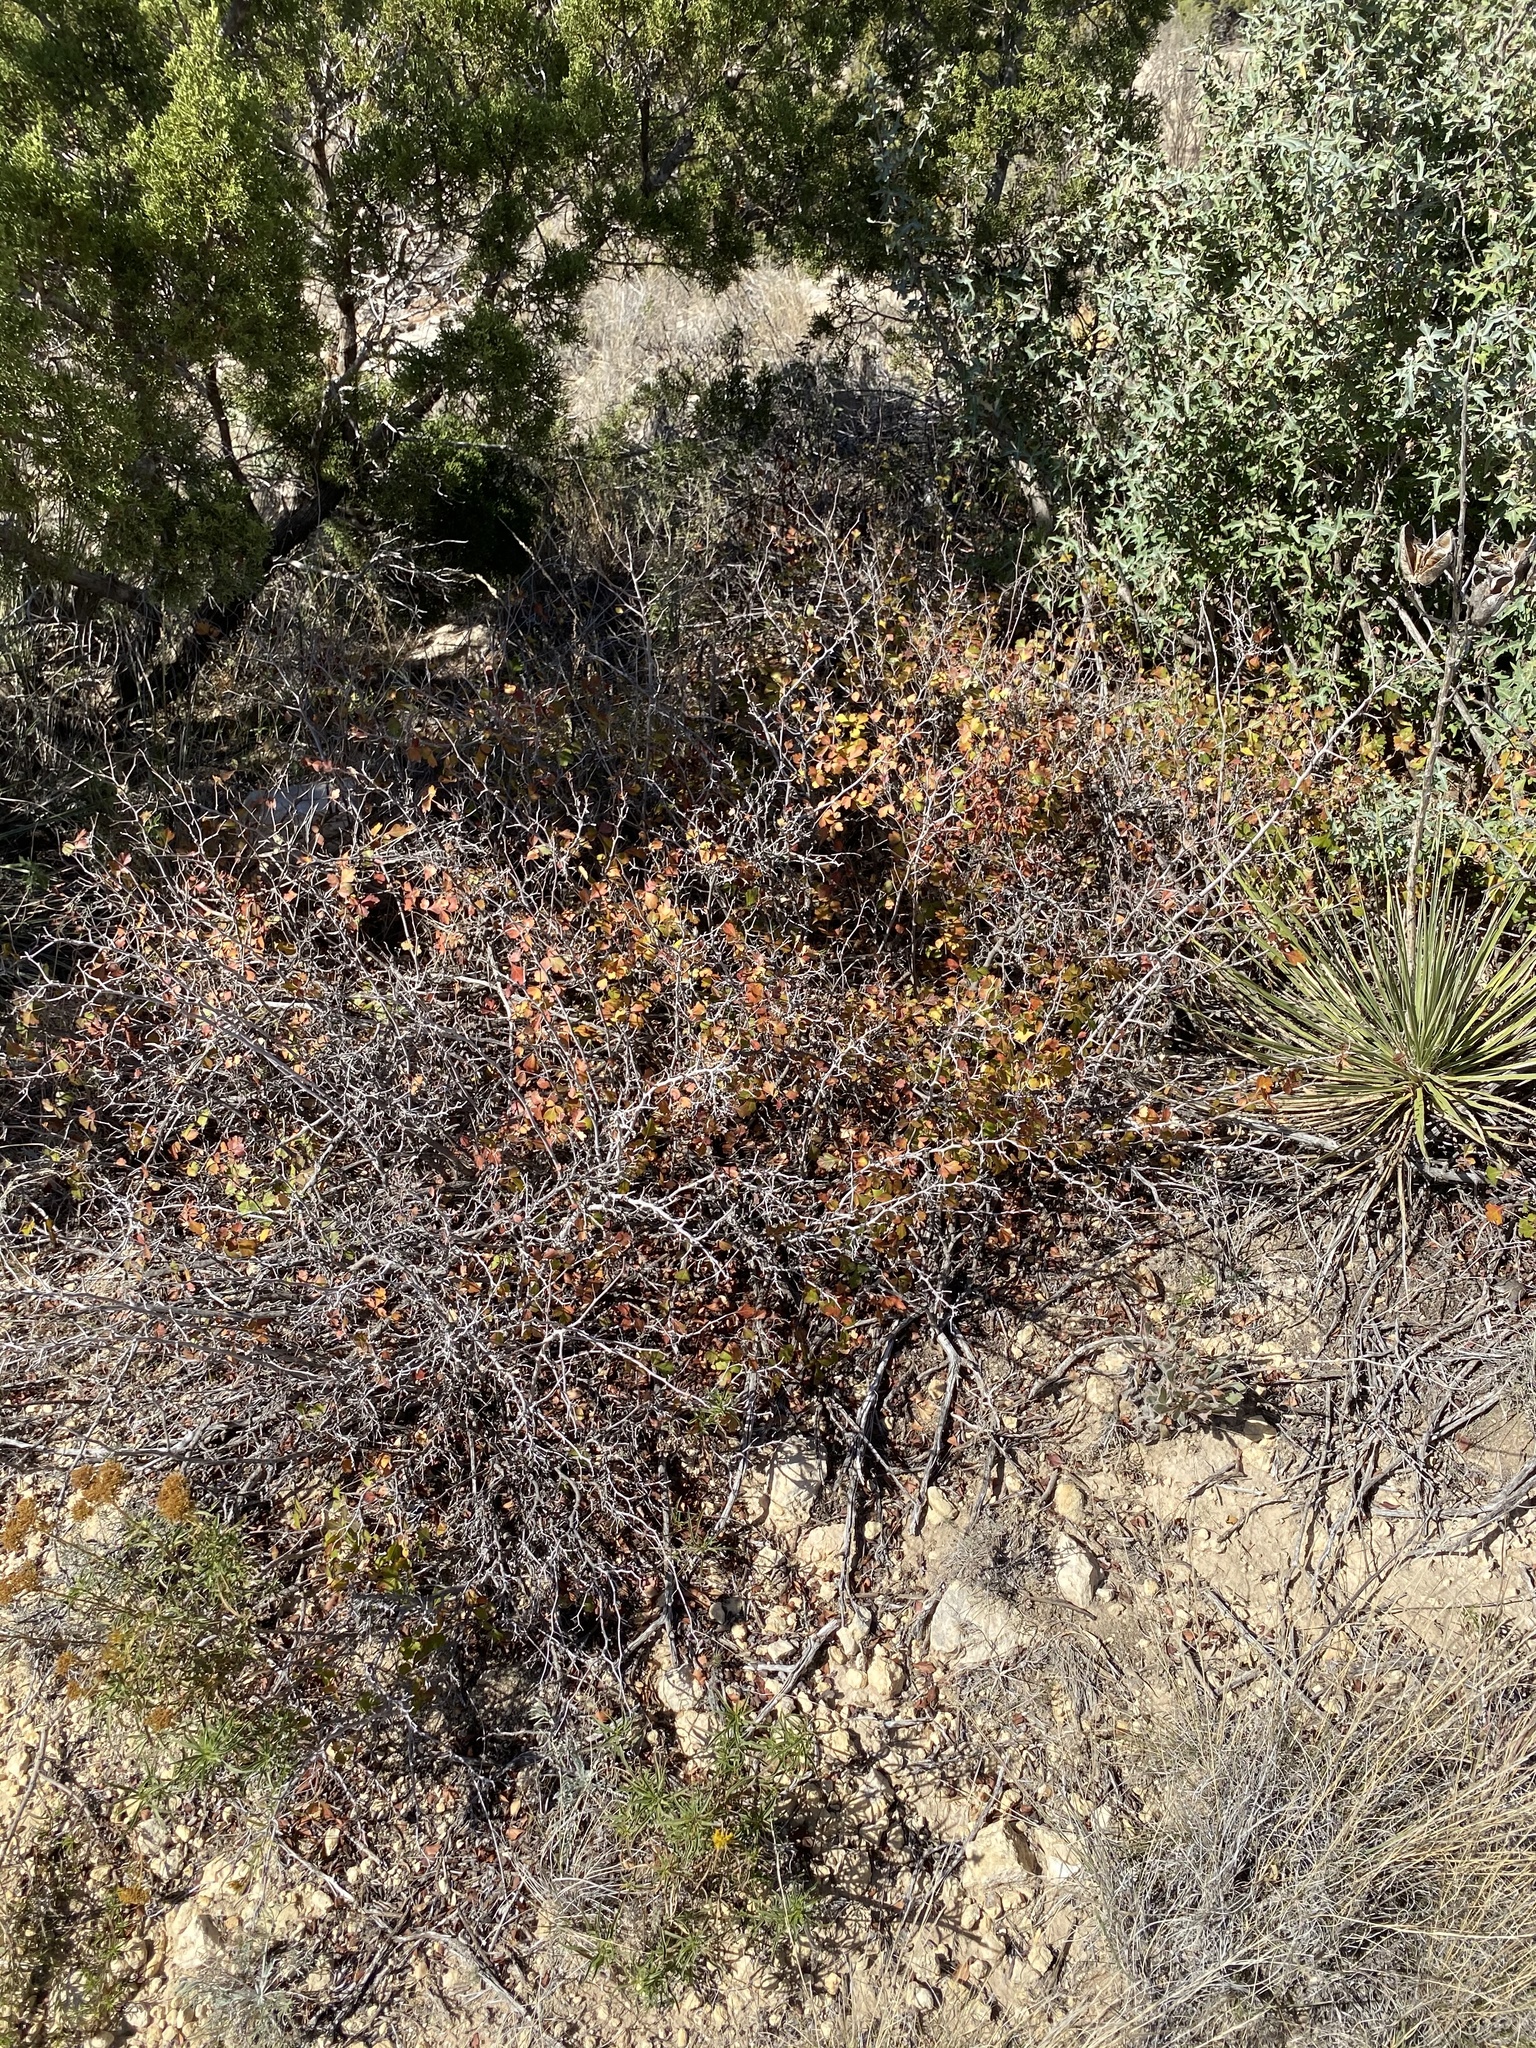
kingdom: Plantae
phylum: Tracheophyta
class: Magnoliopsida
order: Sapindales
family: Anacardiaceae
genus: Rhus
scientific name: Rhus aromatica
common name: Aromatic sumac
